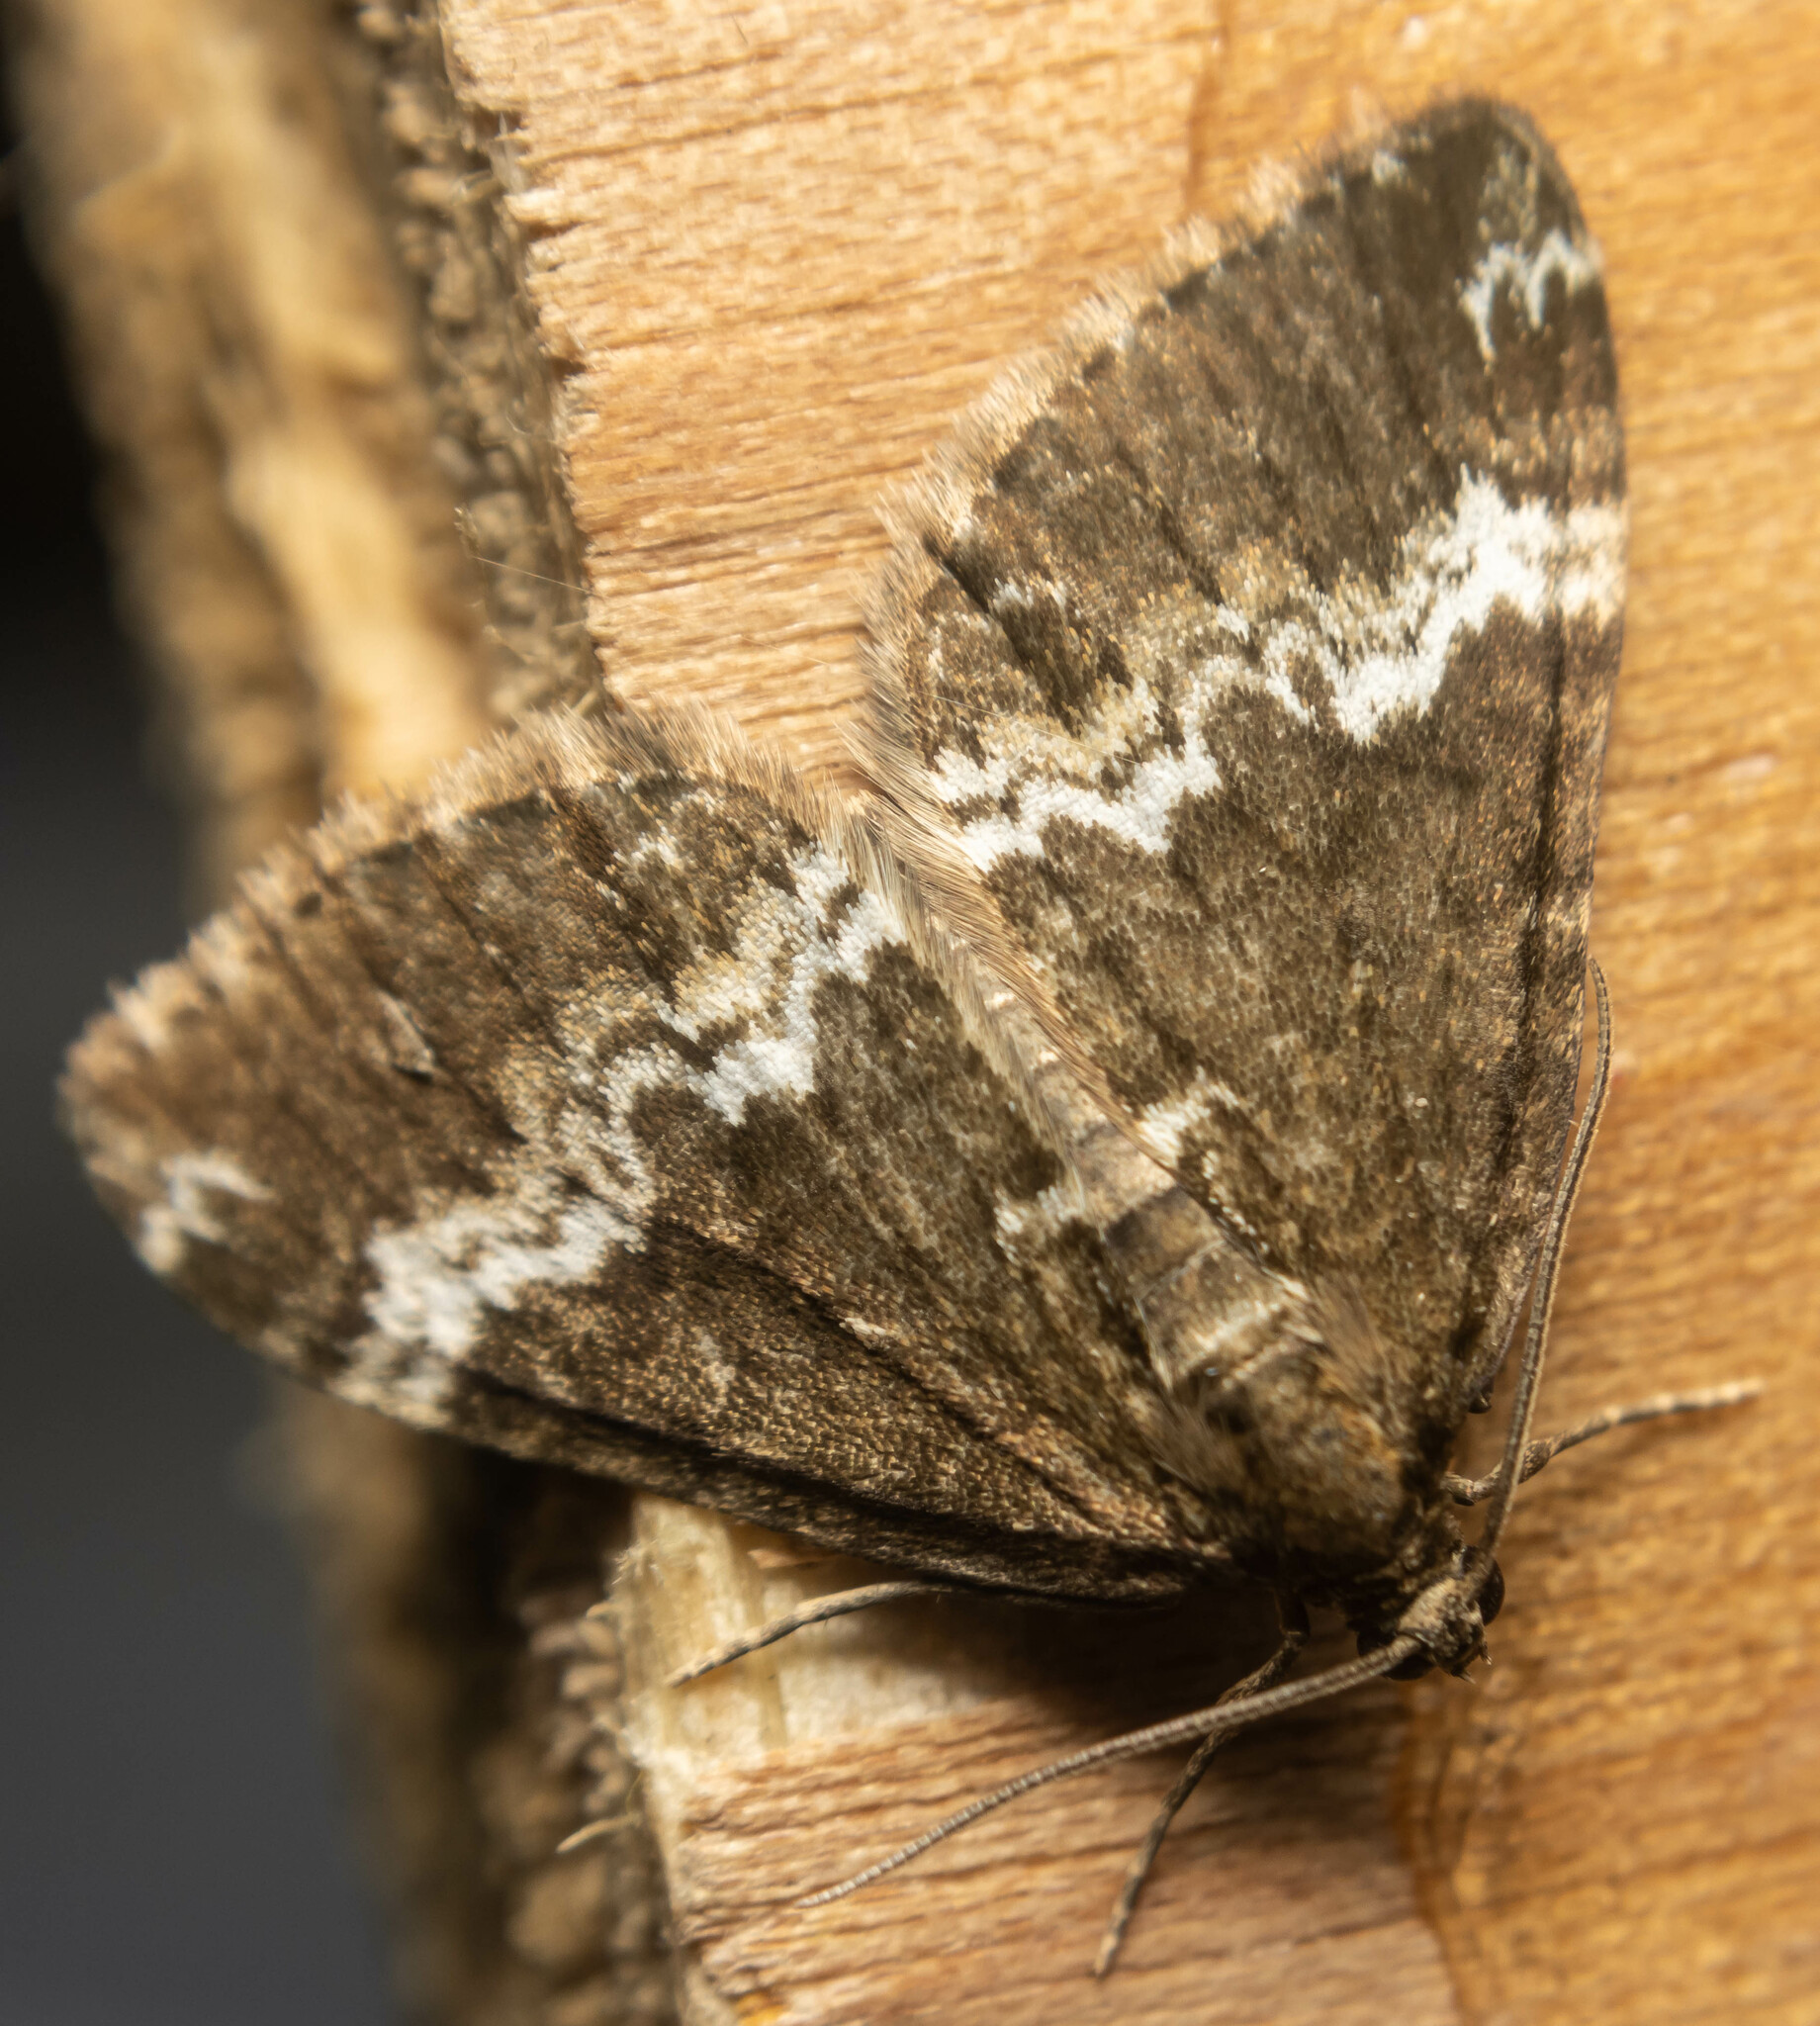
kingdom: Animalia
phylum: Arthropoda
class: Insecta
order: Lepidoptera
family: Geometridae
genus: Perizoma
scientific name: Perizoma affinitata
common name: Rivulet
